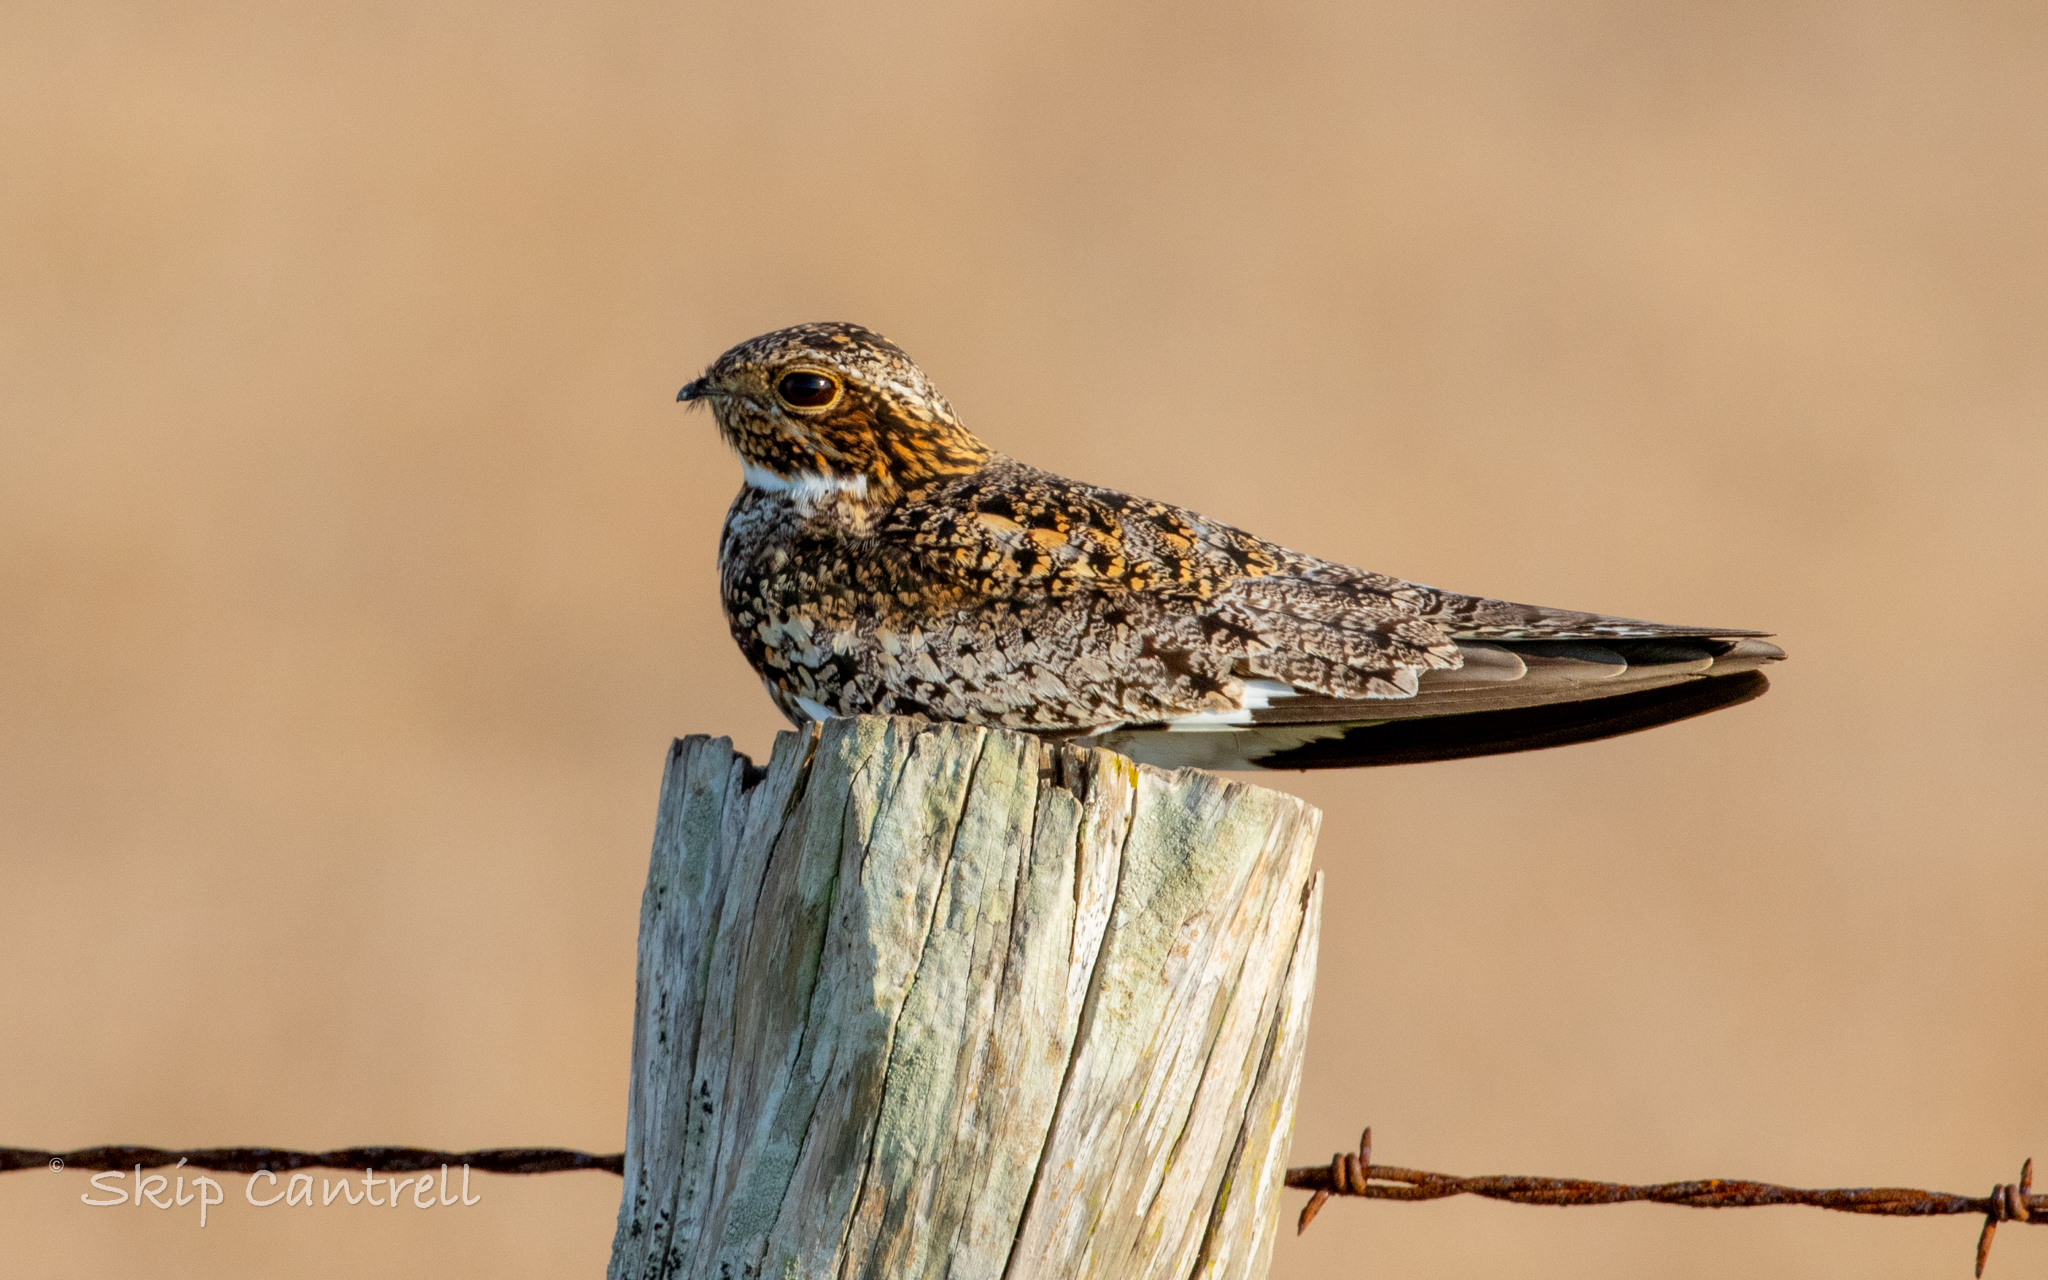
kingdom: Animalia
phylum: Chordata
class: Aves
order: Caprimulgiformes
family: Caprimulgidae
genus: Chordeiles
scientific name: Chordeiles minor
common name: Common nighthawk
